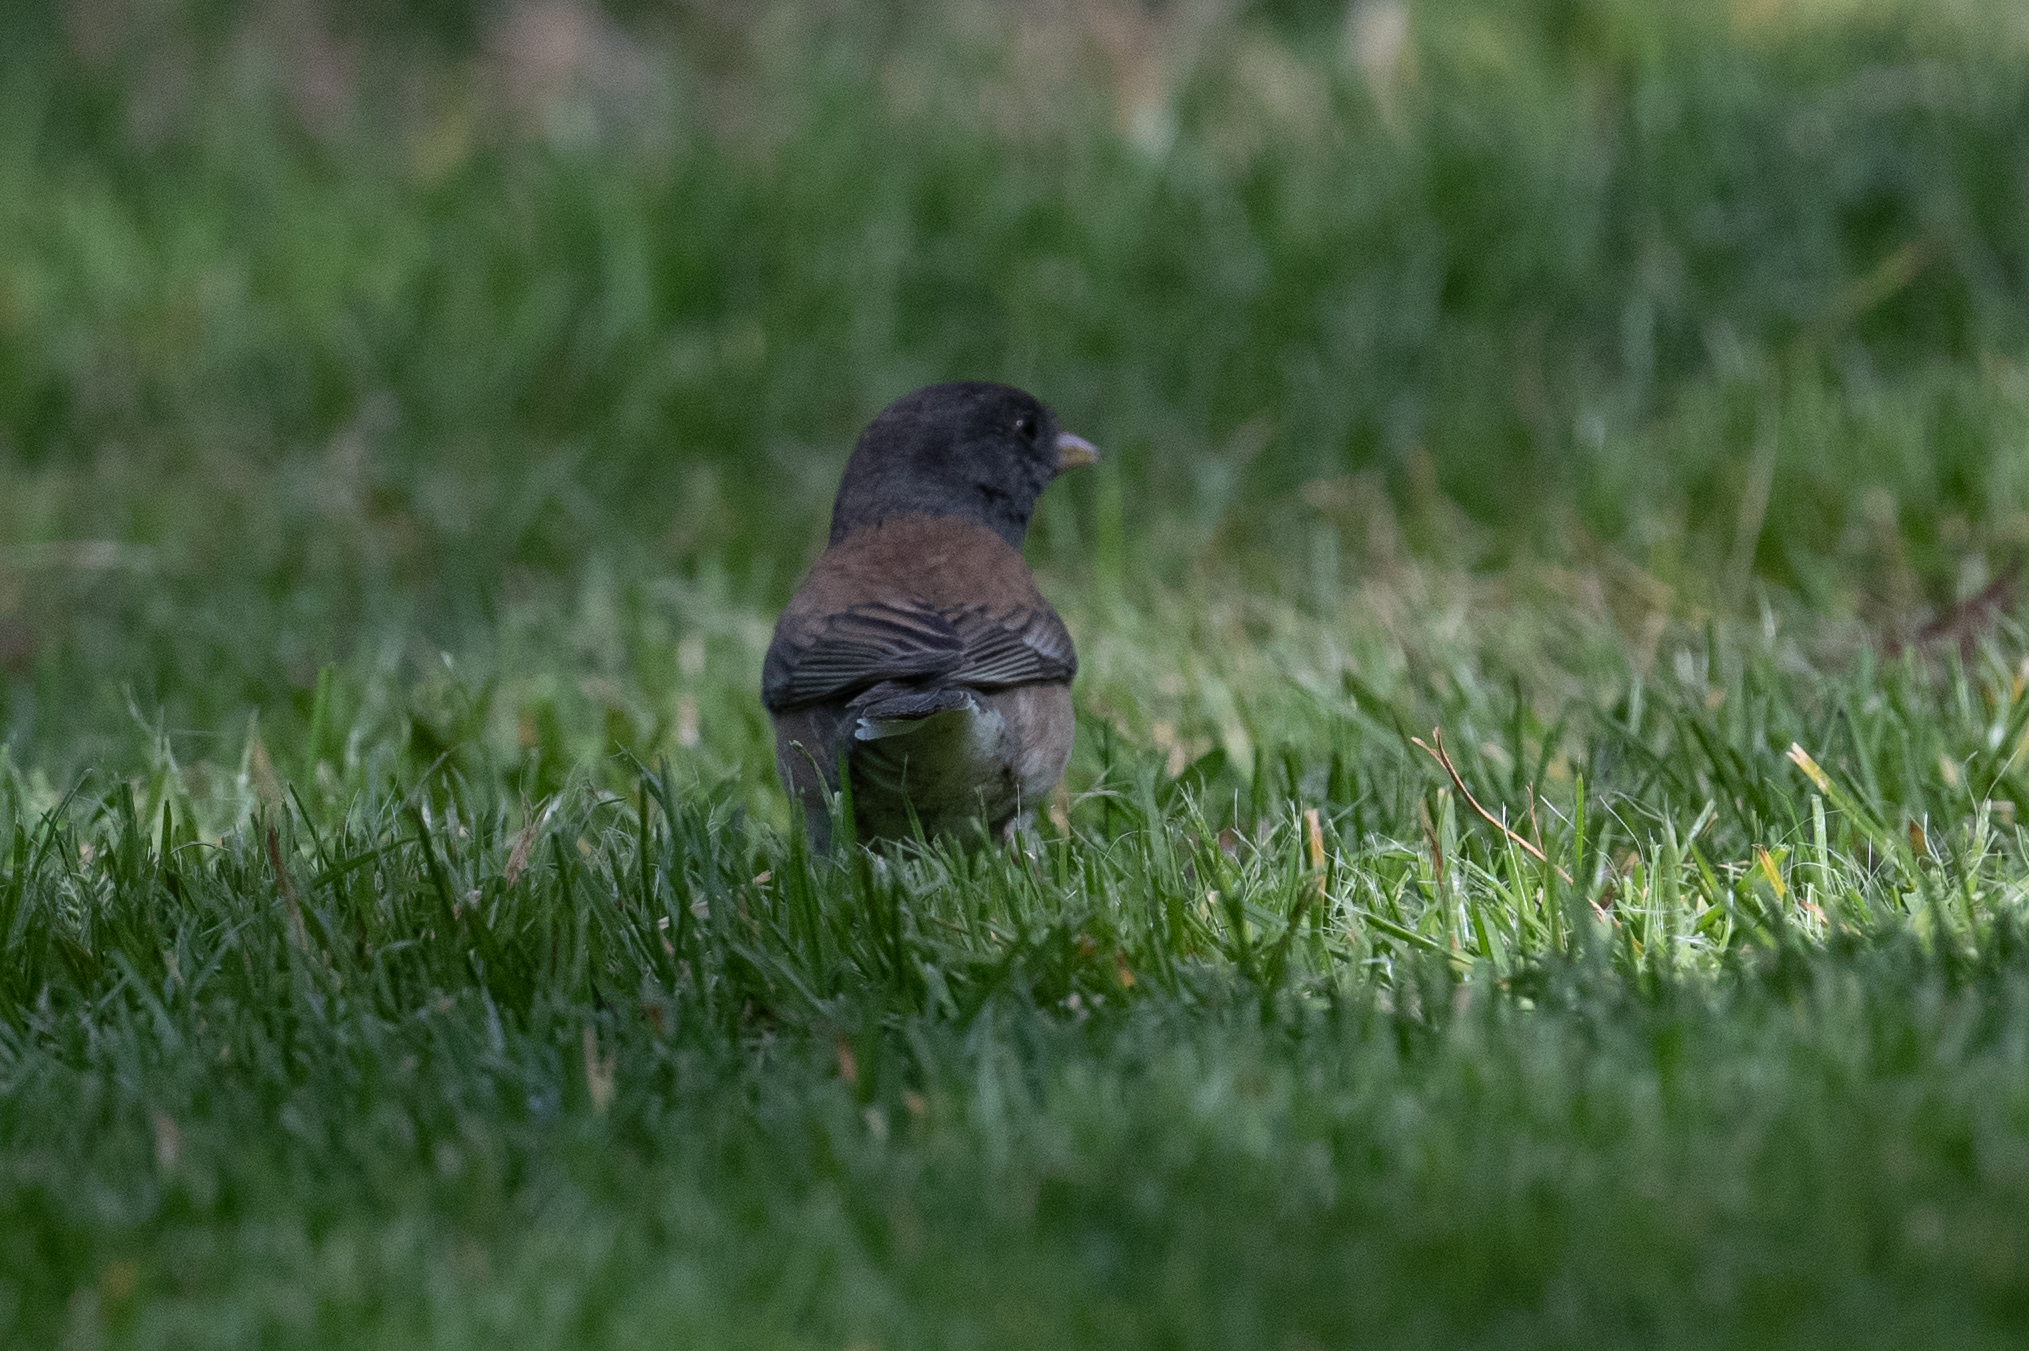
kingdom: Animalia
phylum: Chordata
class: Aves
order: Passeriformes
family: Passerellidae
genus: Junco
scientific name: Junco hyemalis
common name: Dark-eyed junco
